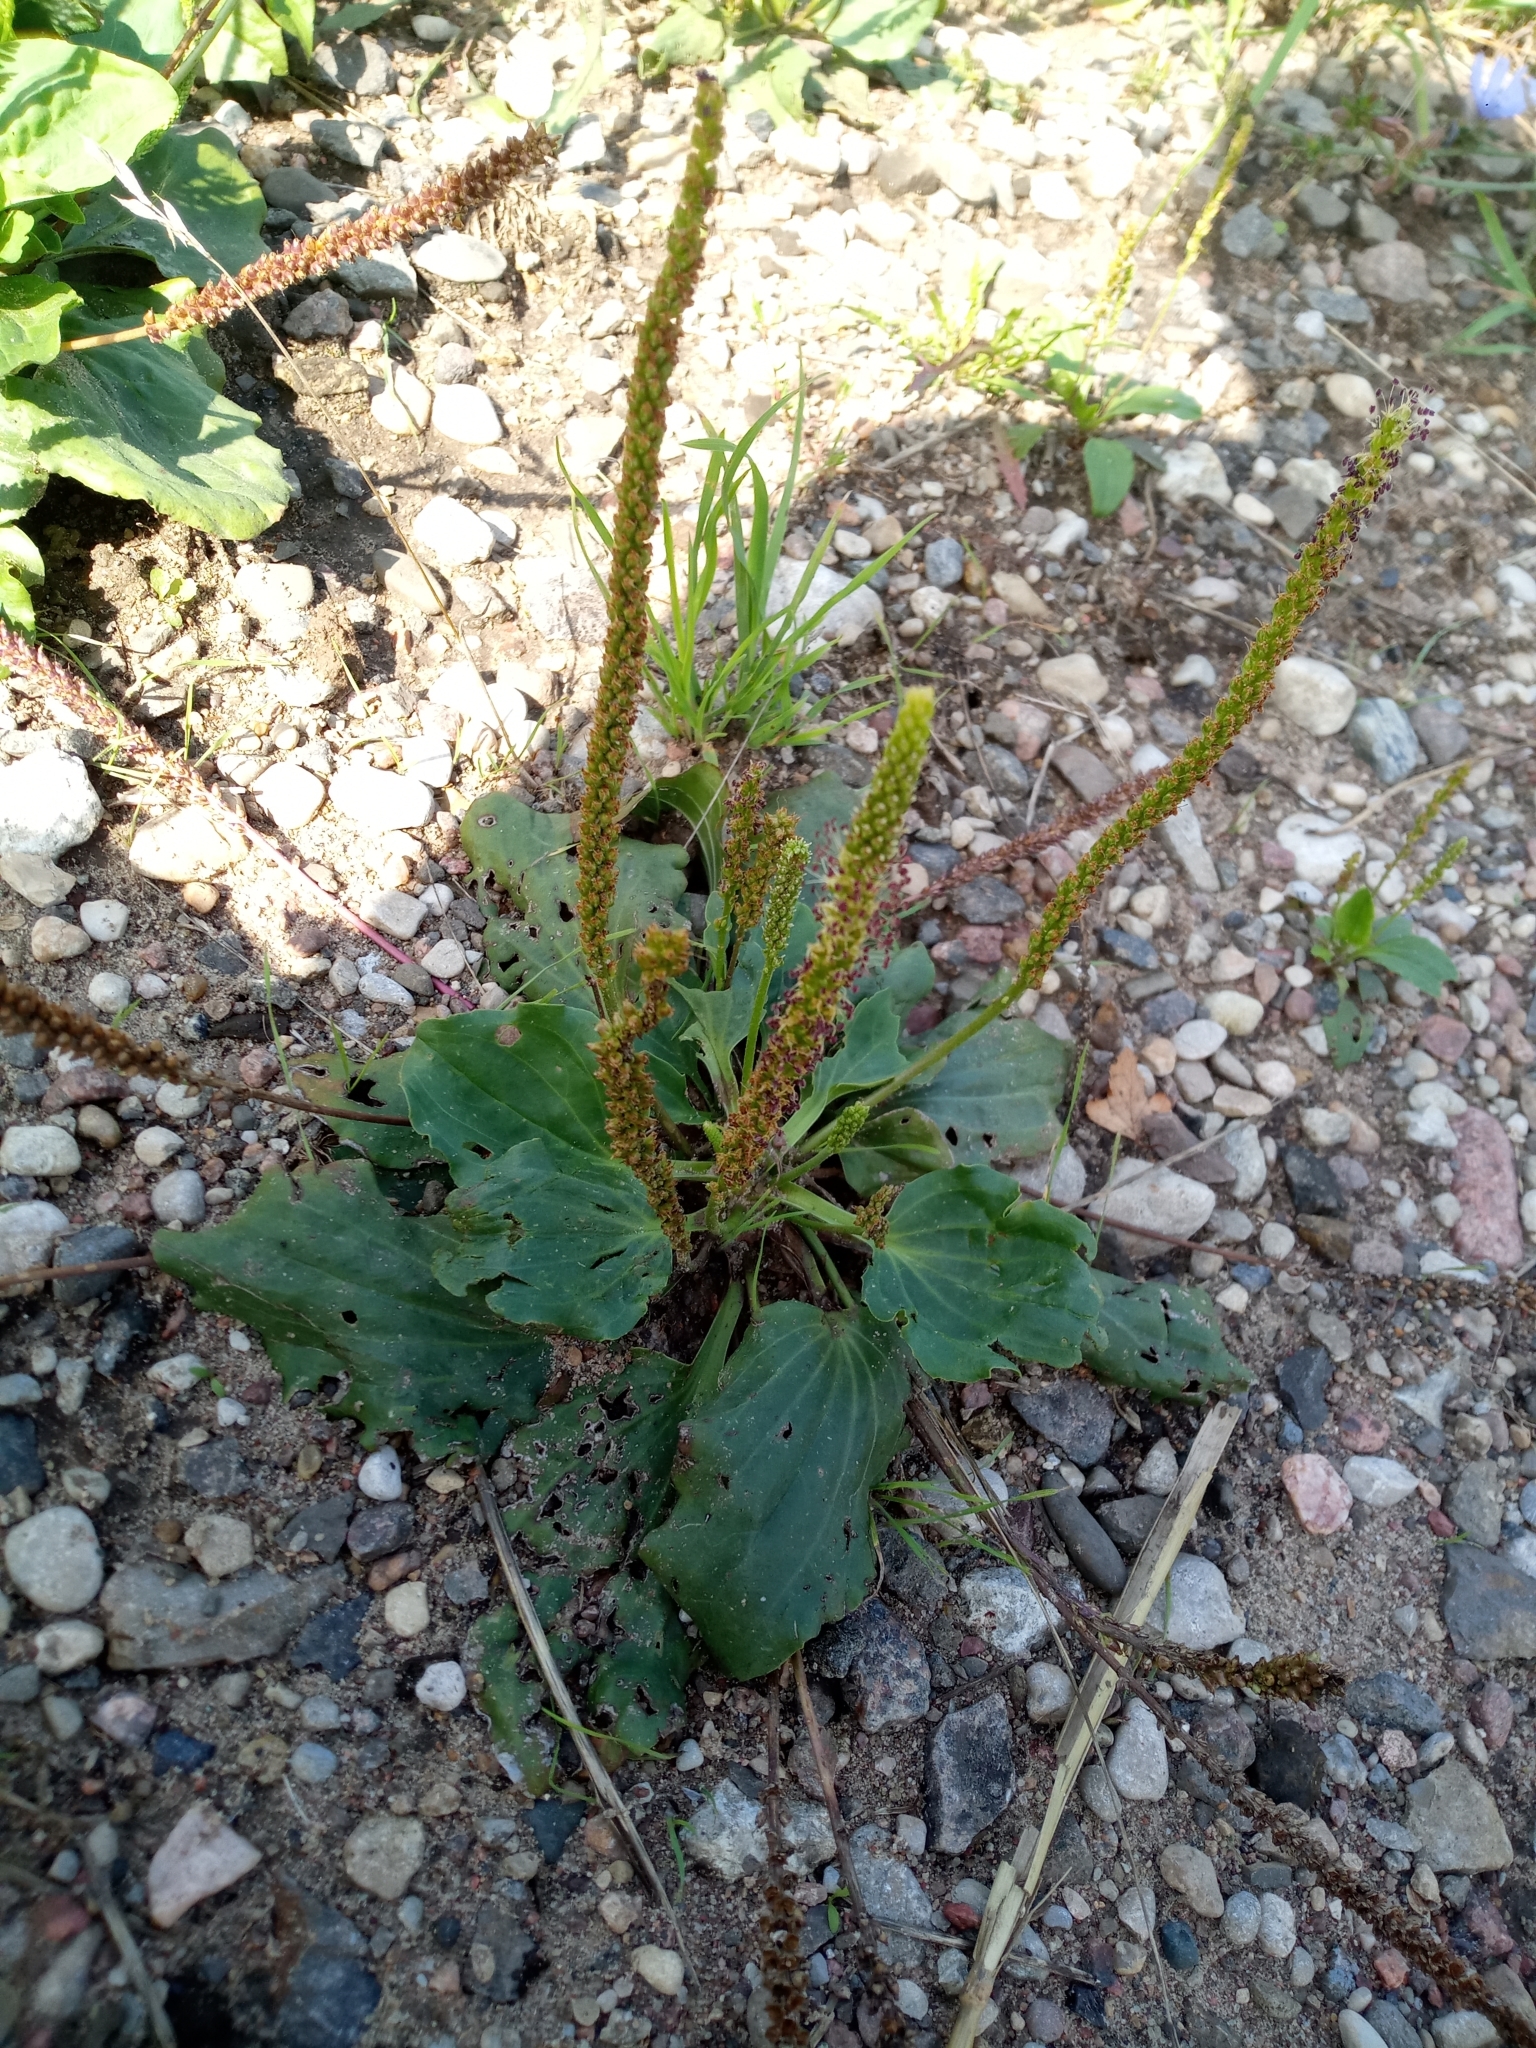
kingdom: Plantae
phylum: Tracheophyta
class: Magnoliopsida
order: Lamiales
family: Plantaginaceae
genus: Plantago
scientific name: Plantago major
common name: Common plantain
